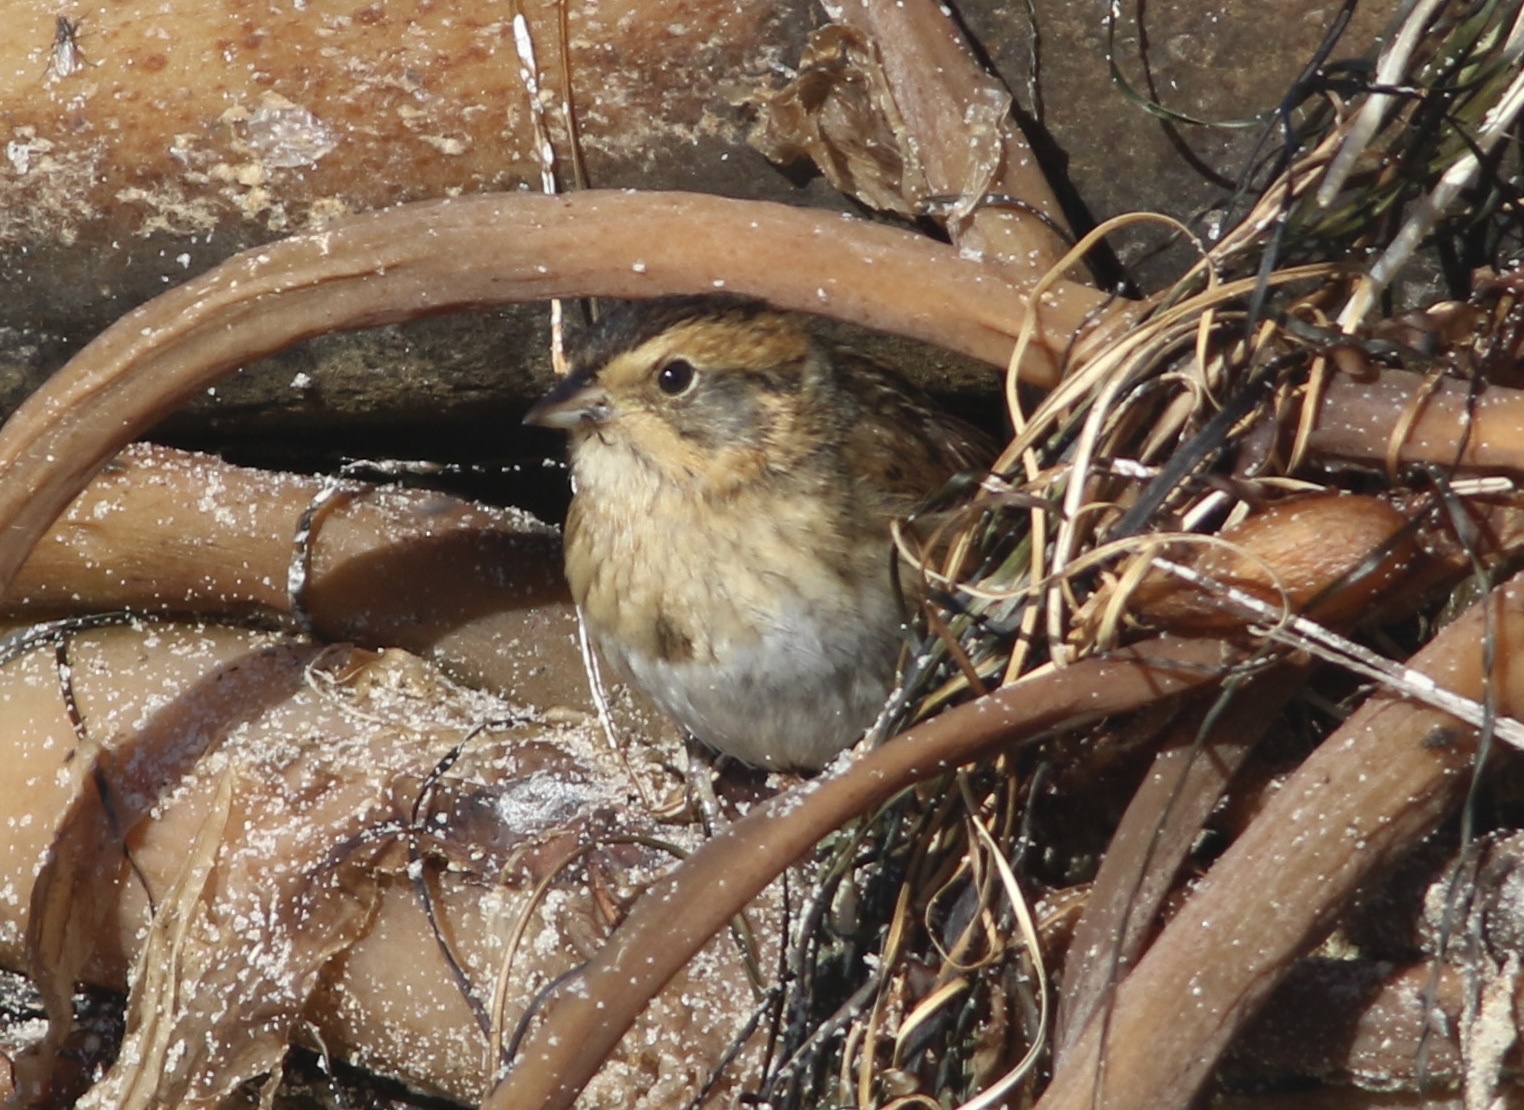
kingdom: Animalia
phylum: Chordata
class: Aves
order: Passeriformes
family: Passerellidae
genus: Ammospiza
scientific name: Ammospiza nelsoni
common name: Nelson's sparrow
